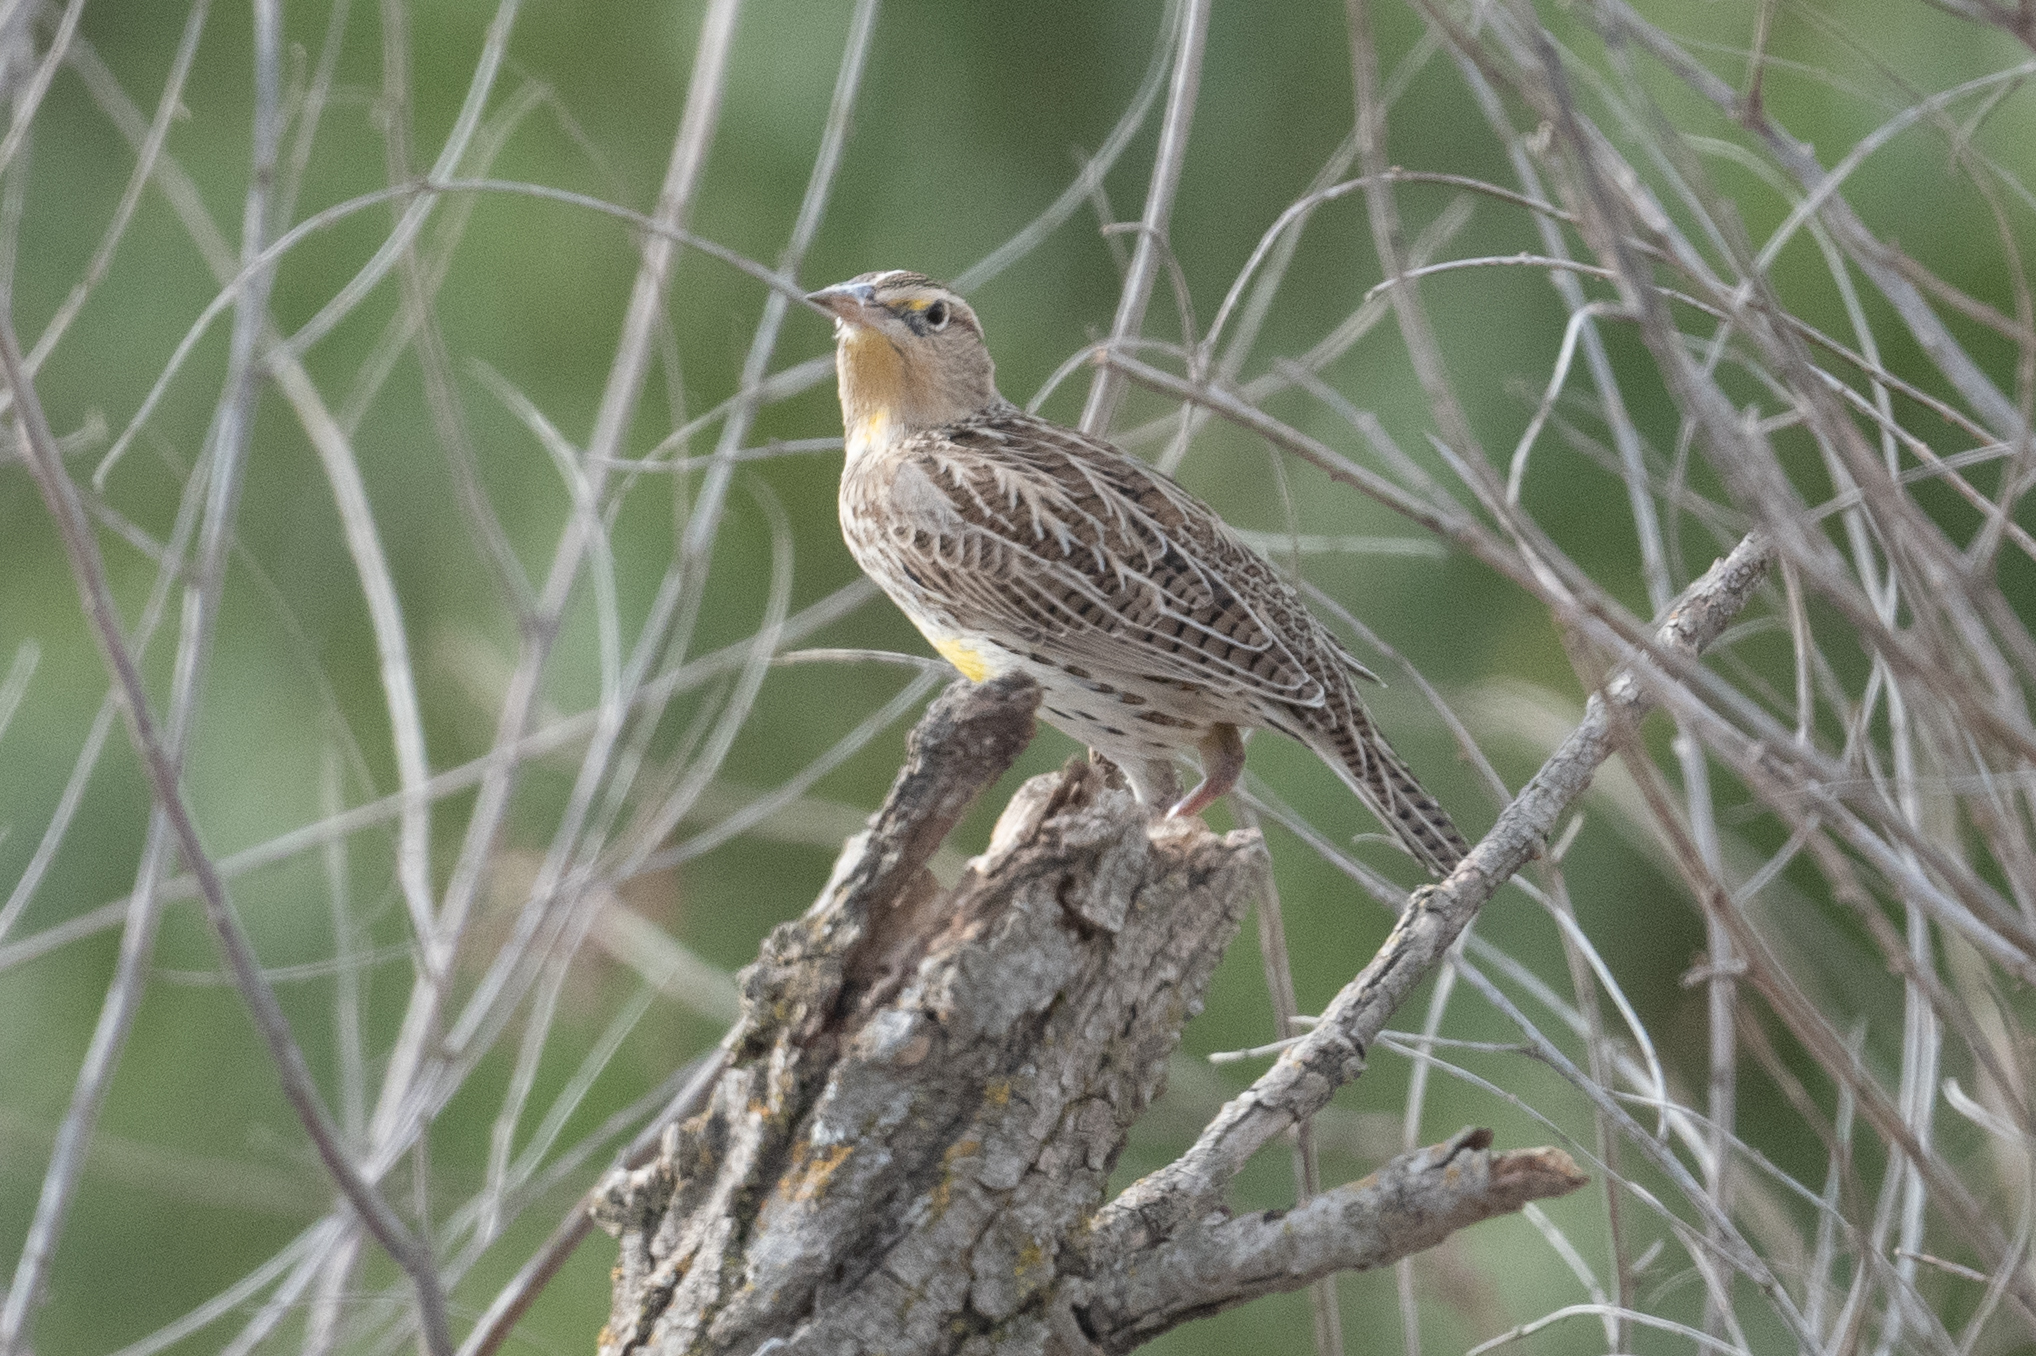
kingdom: Animalia
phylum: Chordata
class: Aves
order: Passeriformes
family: Icteridae
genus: Sturnella
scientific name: Sturnella neglecta
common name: Western meadowlark
